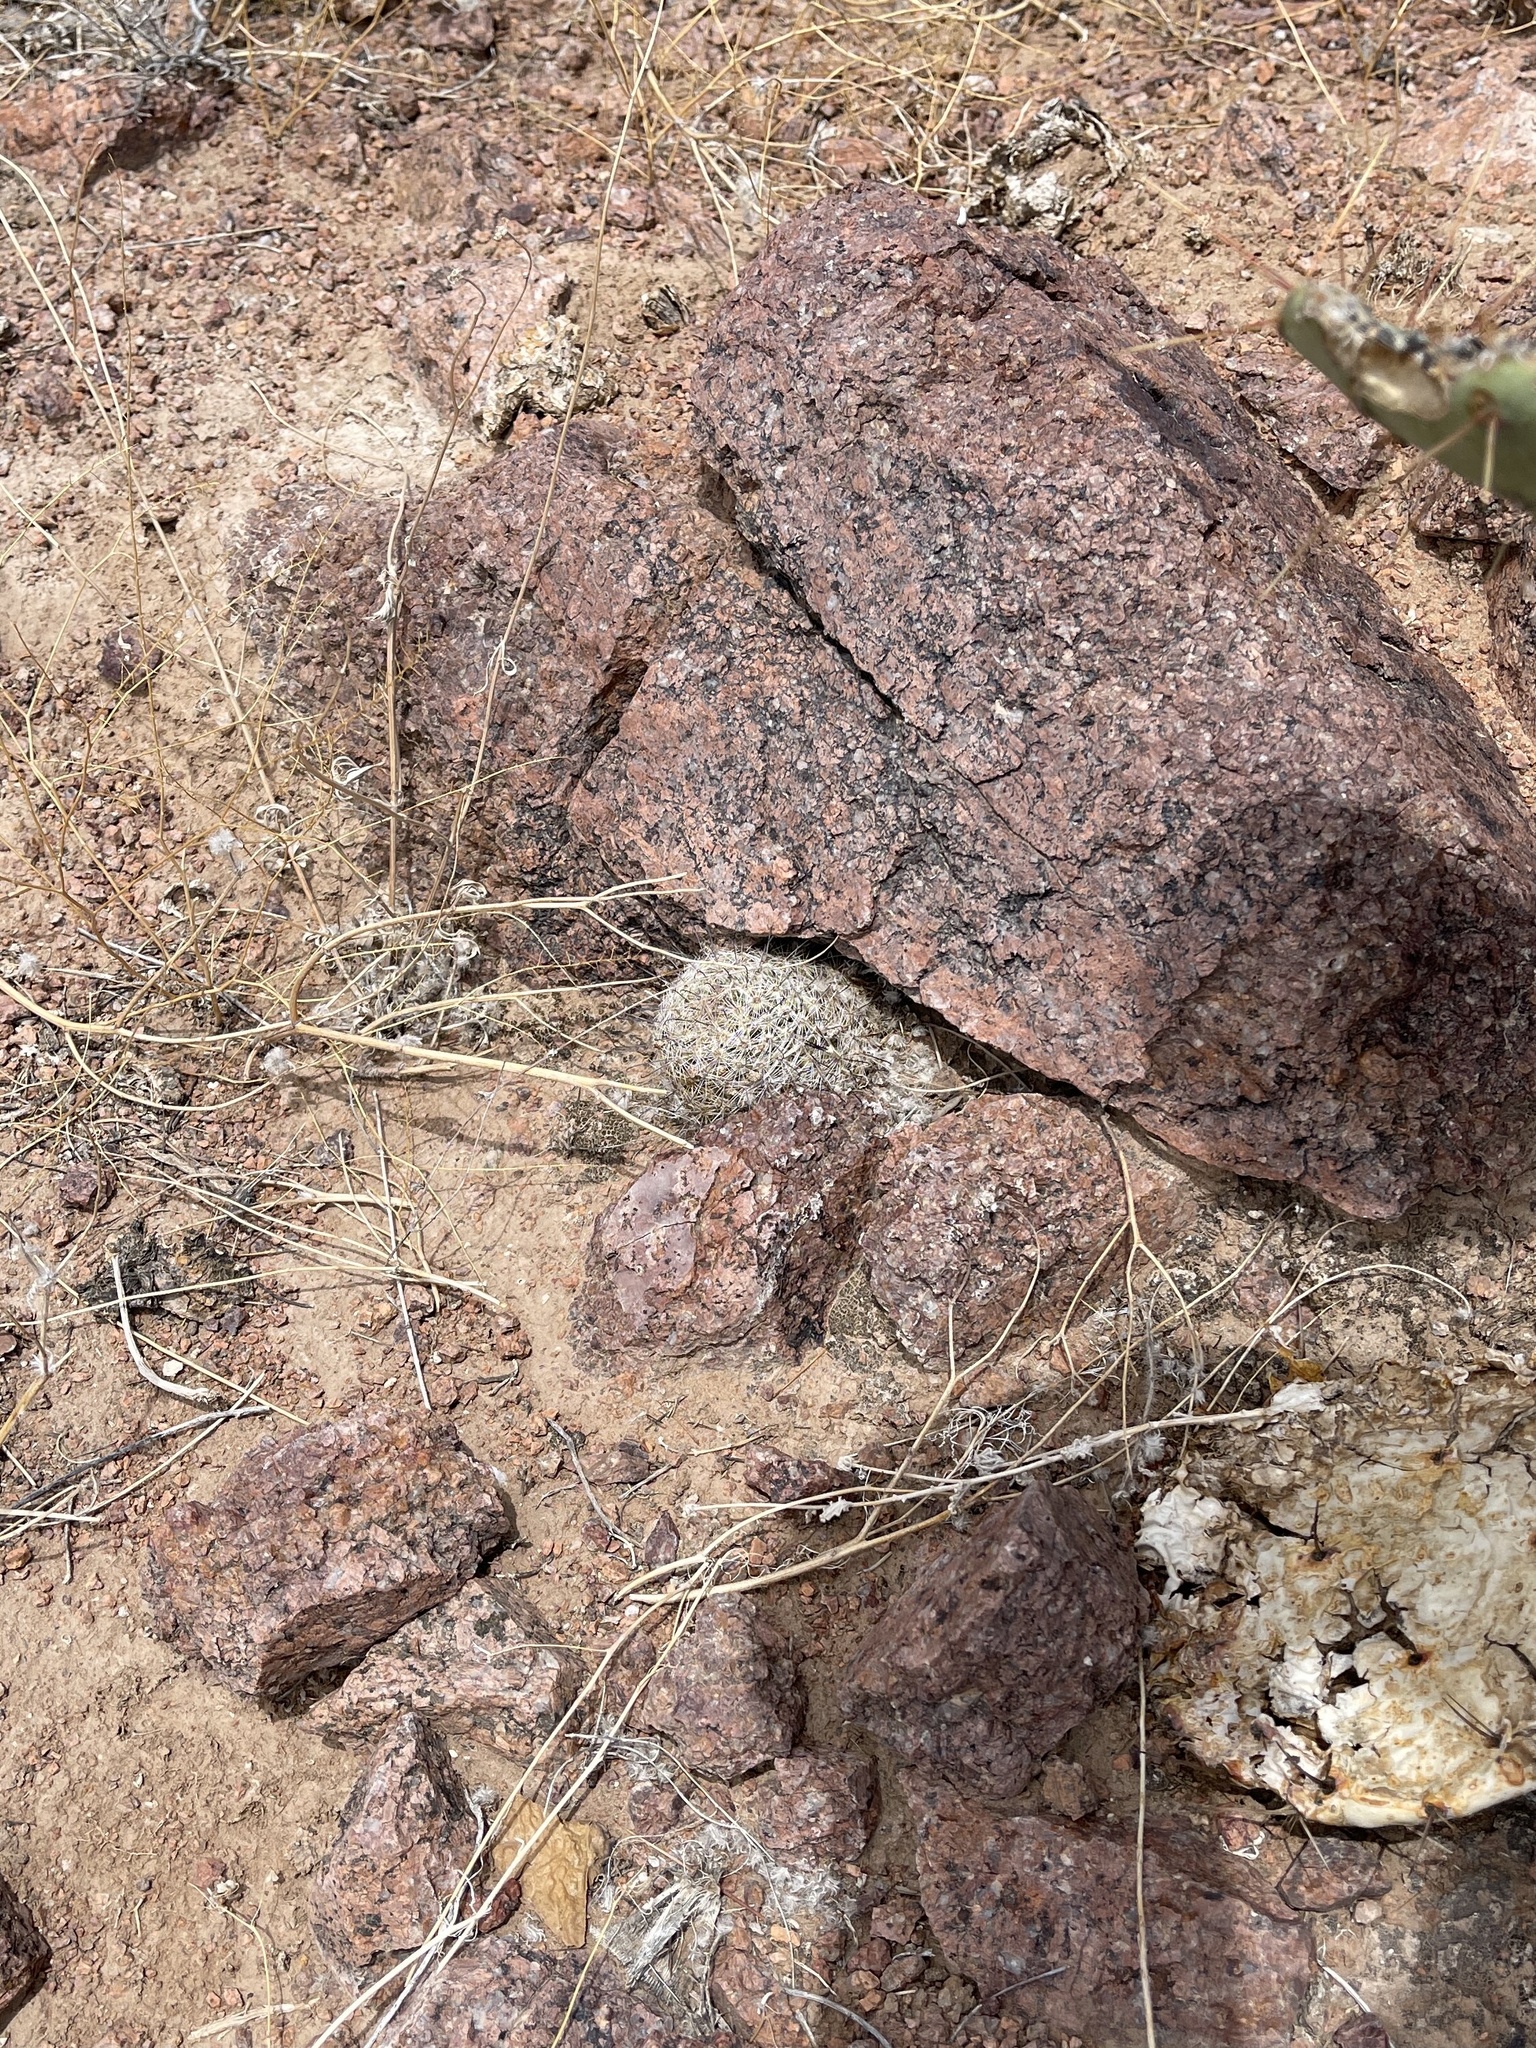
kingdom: Plantae
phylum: Tracheophyta
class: Magnoliopsida
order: Caryophyllales
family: Cactaceae
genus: Cochemiea
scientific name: Cochemiea grahamii
